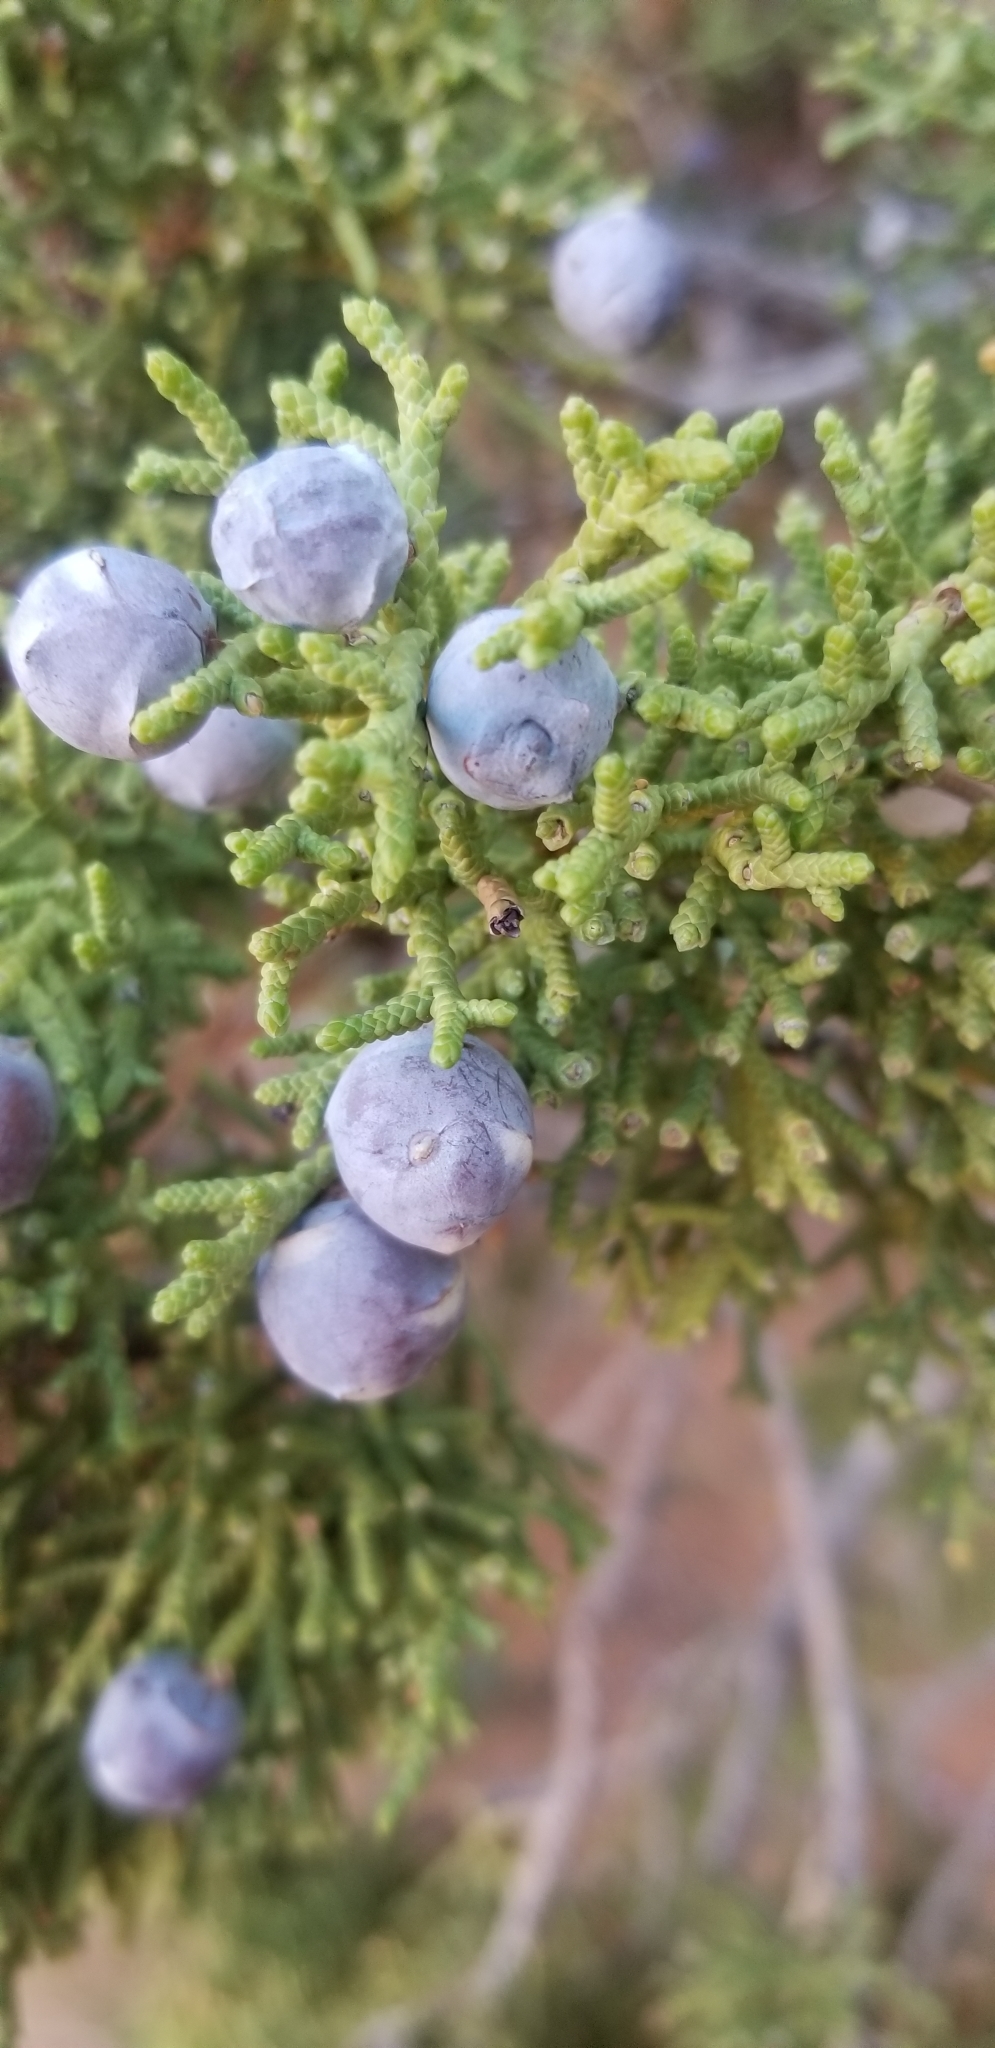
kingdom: Plantae
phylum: Tracheophyta
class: Pinopsida
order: Pinales
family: Cupressaceae
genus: Juniperus
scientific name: Juniperus osteosperma
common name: Utah juniper
